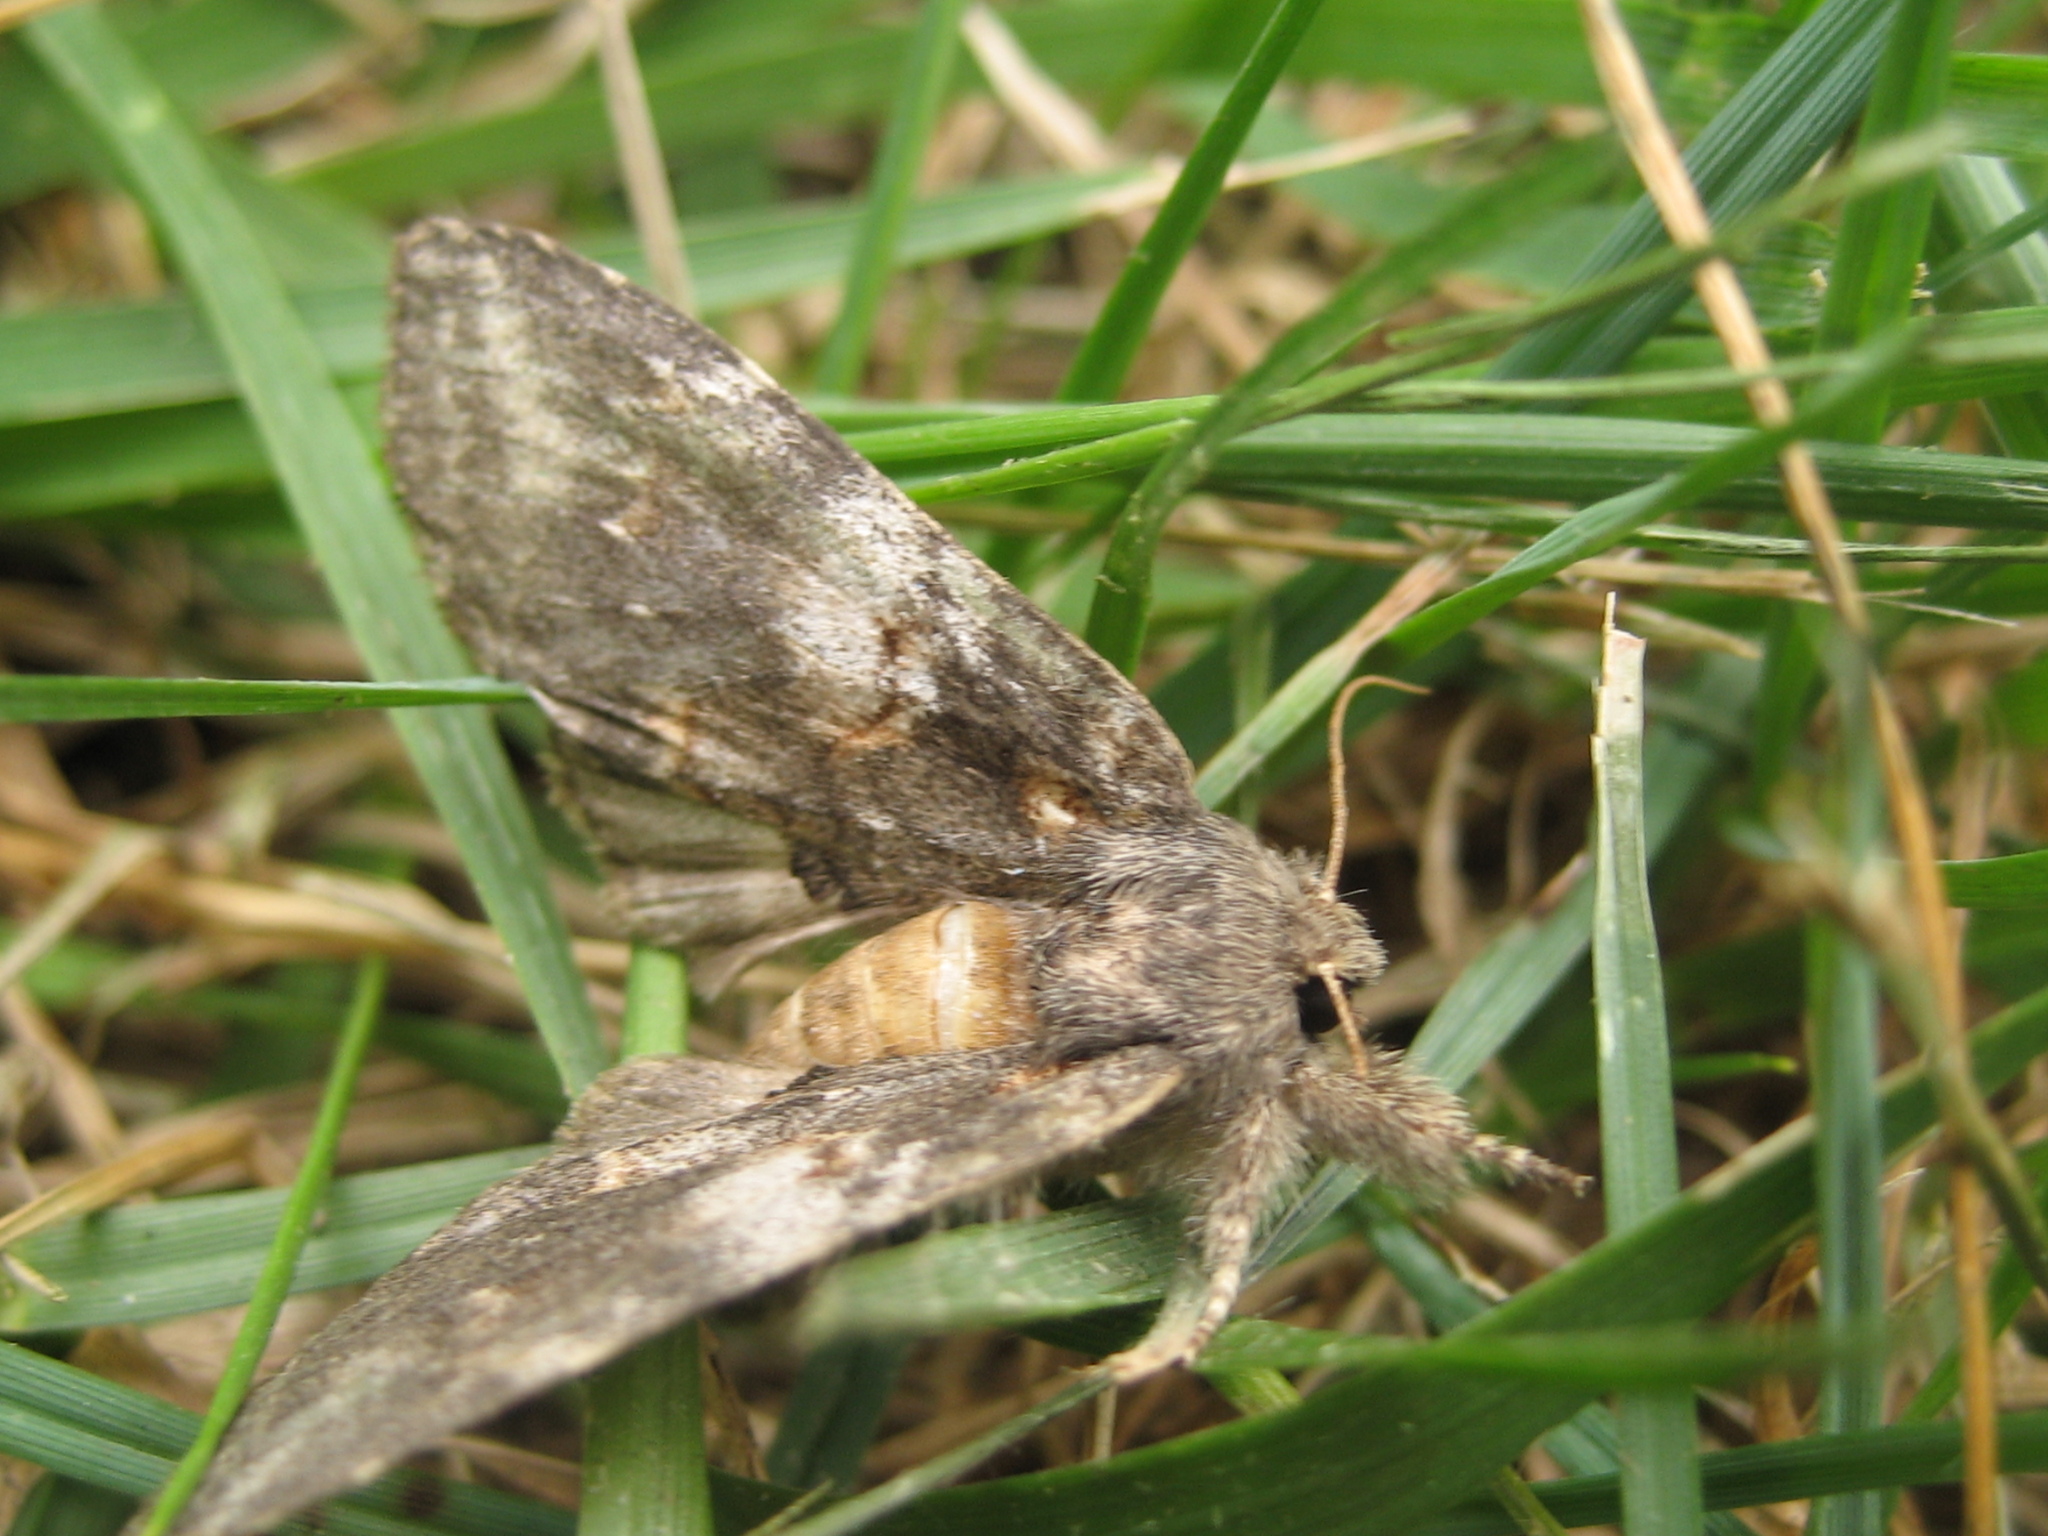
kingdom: Animalia
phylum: Arthropoda
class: Insecta
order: Lepidoptera
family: Notodontidae
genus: Peridea
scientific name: Peridea angulosa
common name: Angulose prominent
